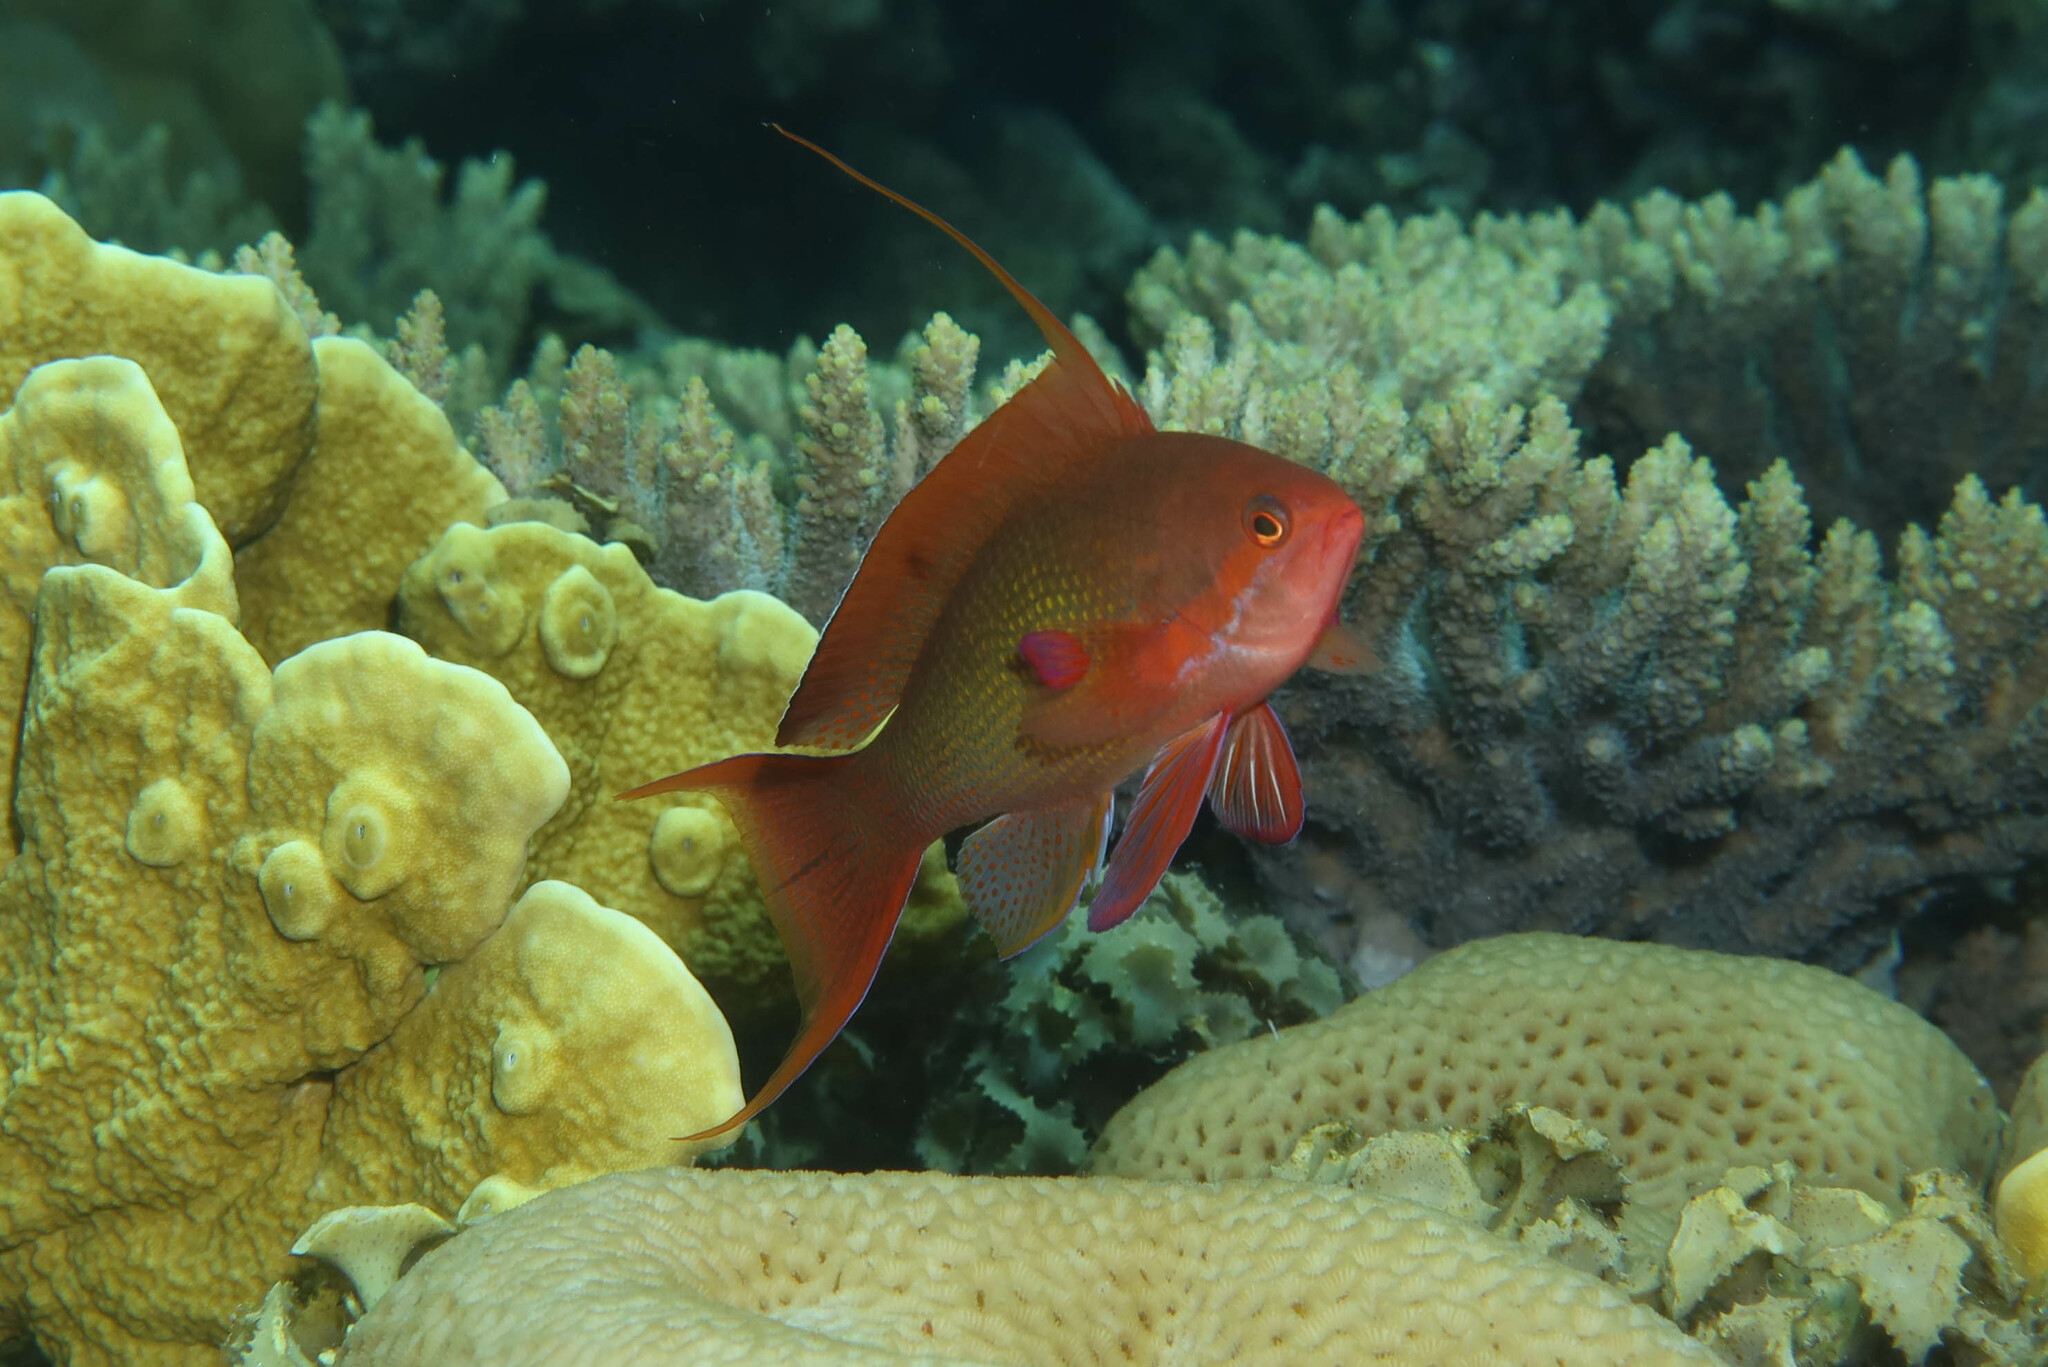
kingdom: Animalia
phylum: Chordata
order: Perciformes
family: Serranidae
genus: Pseudanthias
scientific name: Pseudanthias squamipinnis
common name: Scalefin anthias
